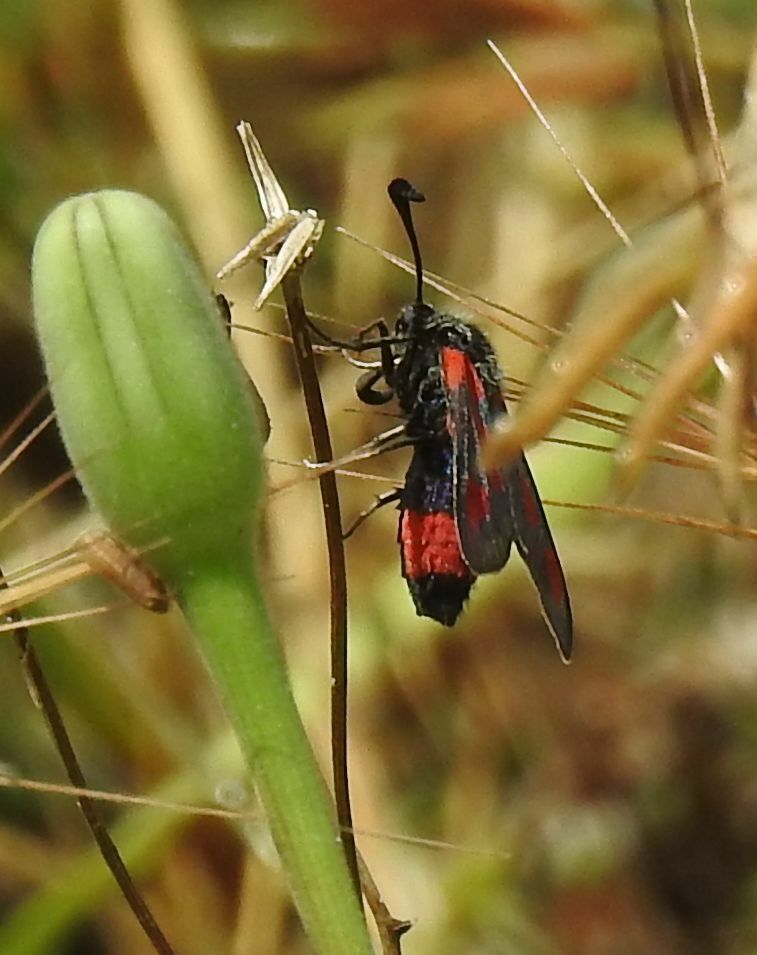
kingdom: Animalia
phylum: Arthropoda
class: Insecta
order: Lepidoptera
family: Zygaenidae
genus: Zygaena
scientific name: Zygaena sarpedon
